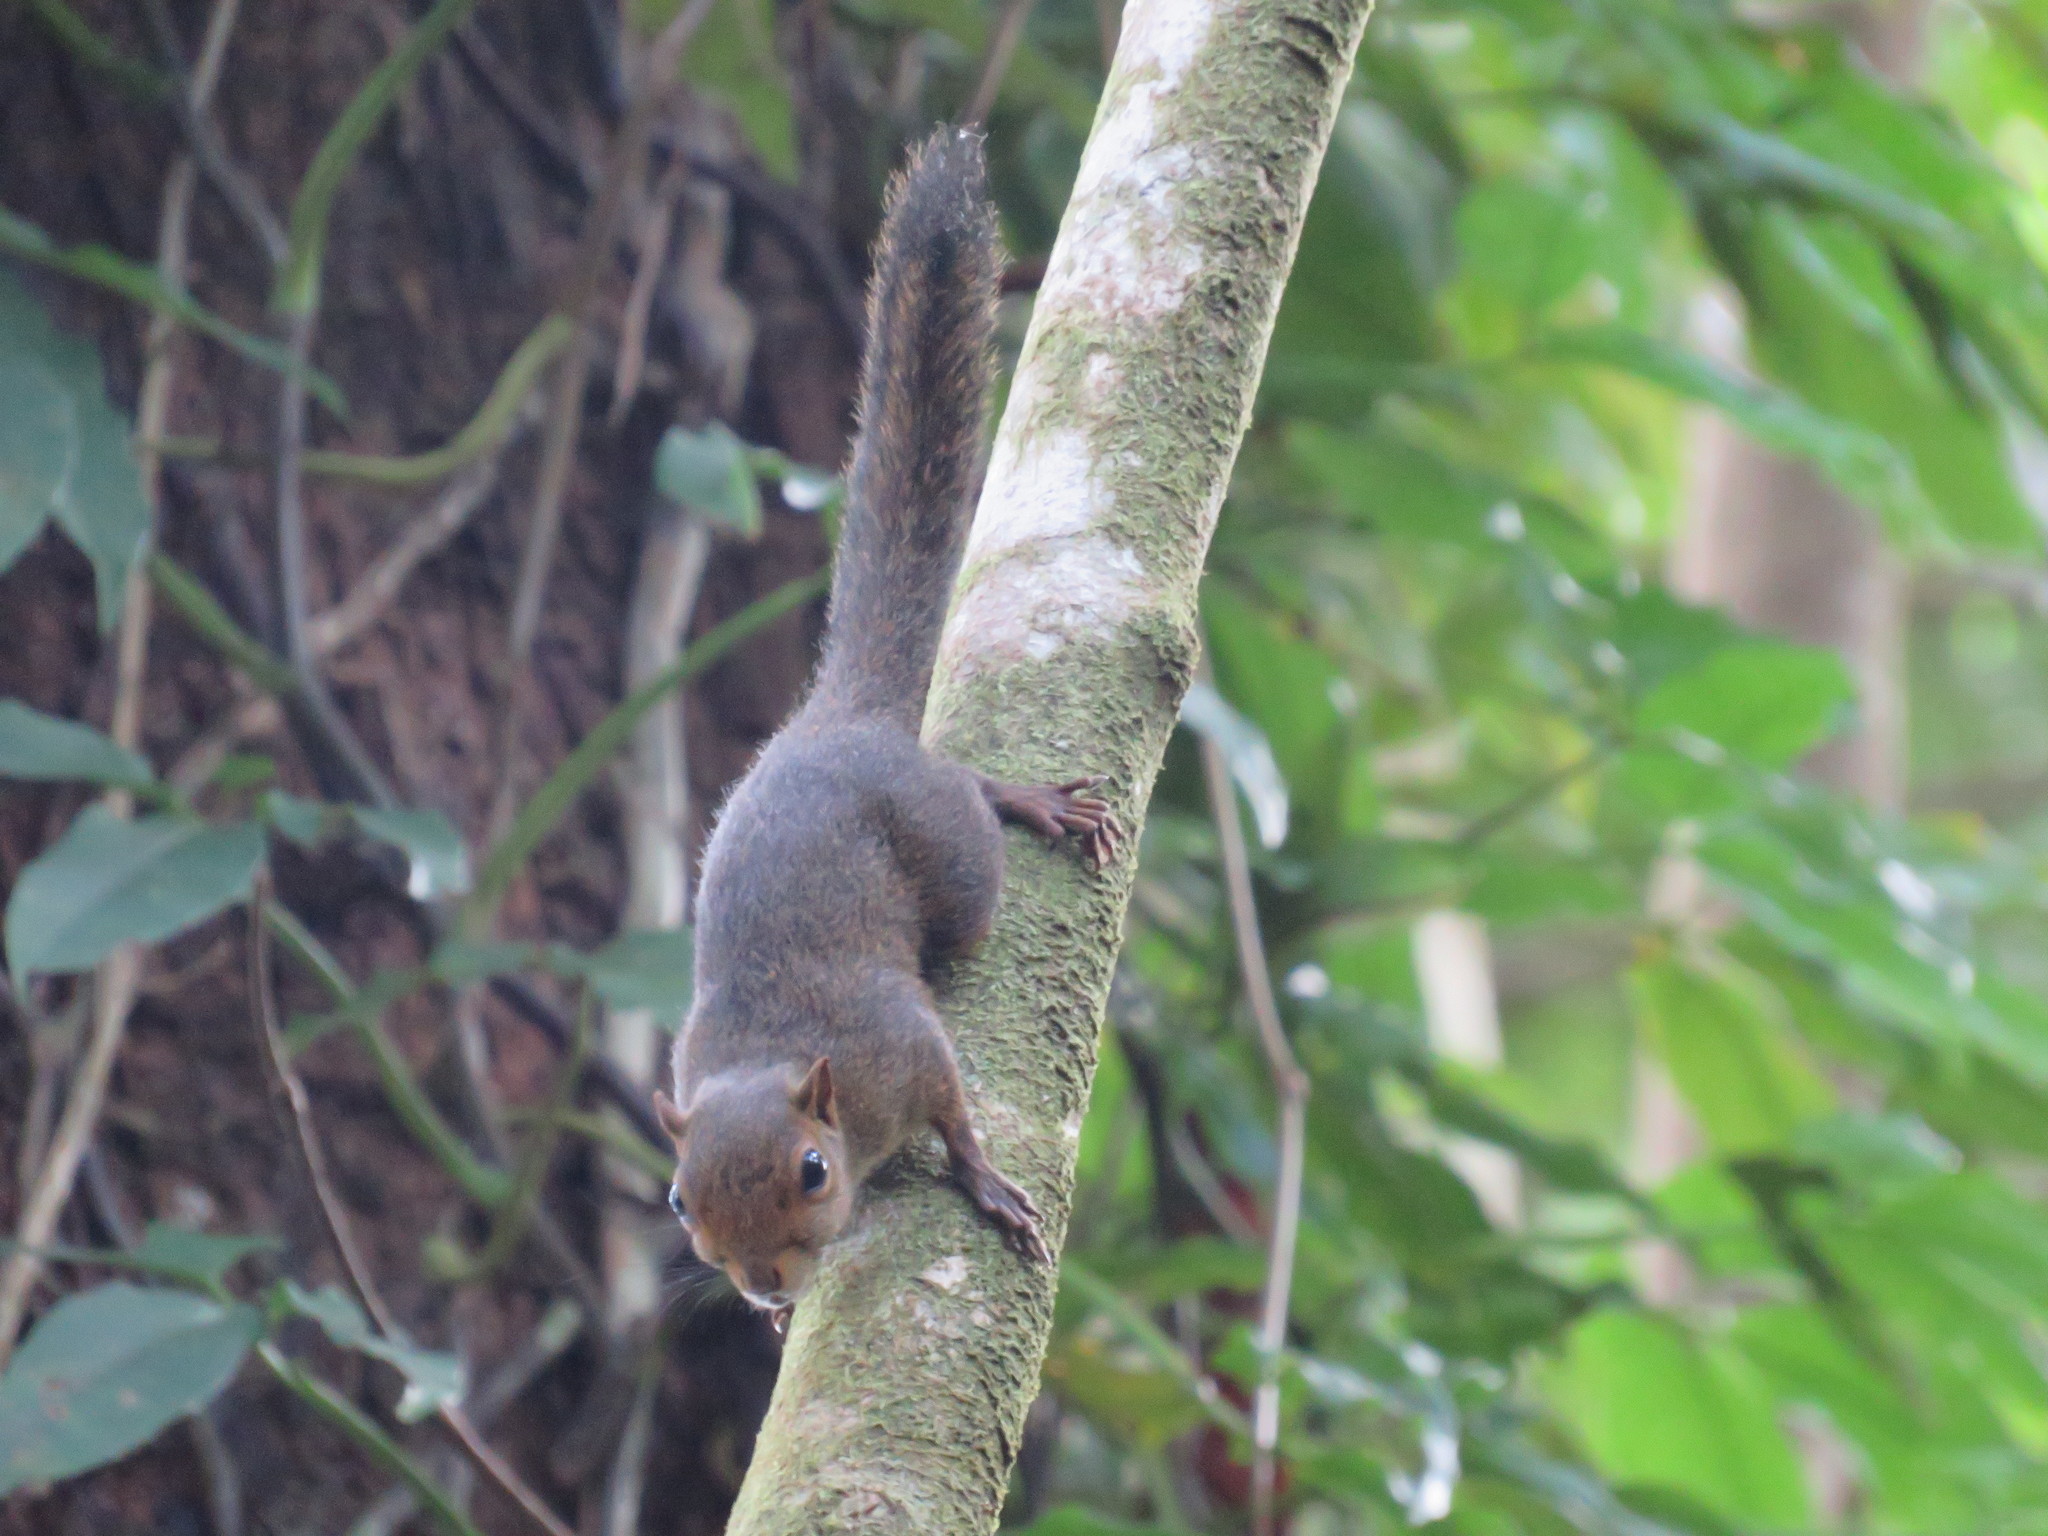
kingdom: Animalia
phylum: Chordata
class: Mammalia
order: Rodentia
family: Sciuridae
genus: Microsciurus
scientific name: Microsciurus alfari
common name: Central american dwarf squirrel
